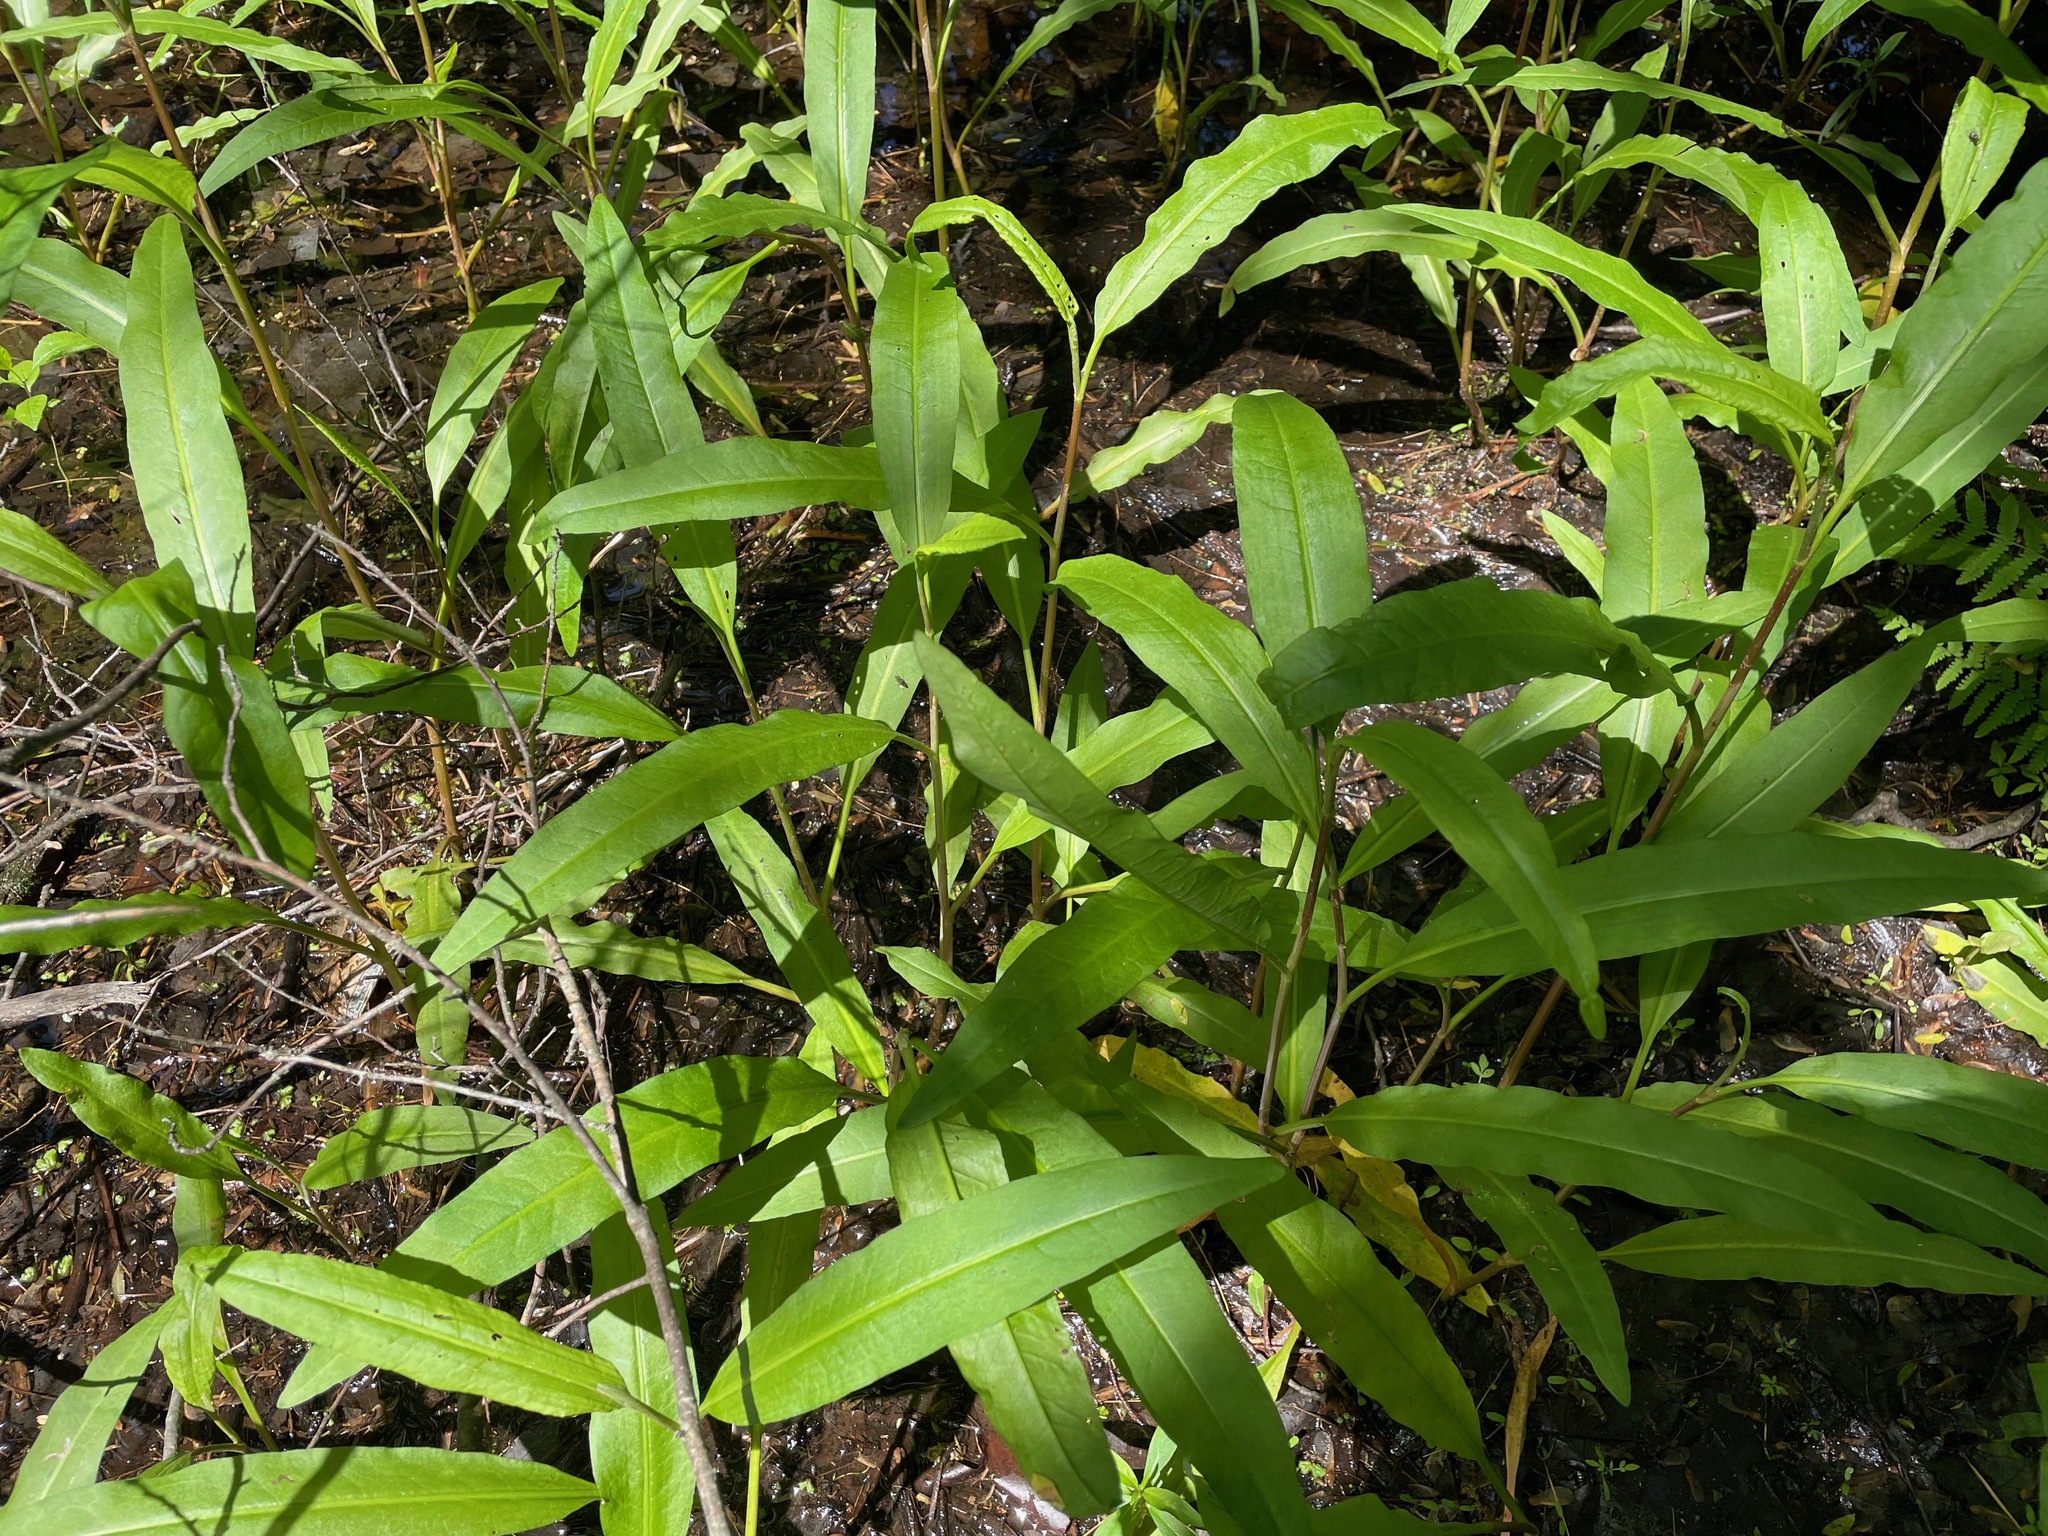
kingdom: Plantae
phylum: Tracheophyta
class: Magnoliopsida
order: Caryophyllales
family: Polygonaceae
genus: Rumex
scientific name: Rumex verticillatus
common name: Swamp dock
